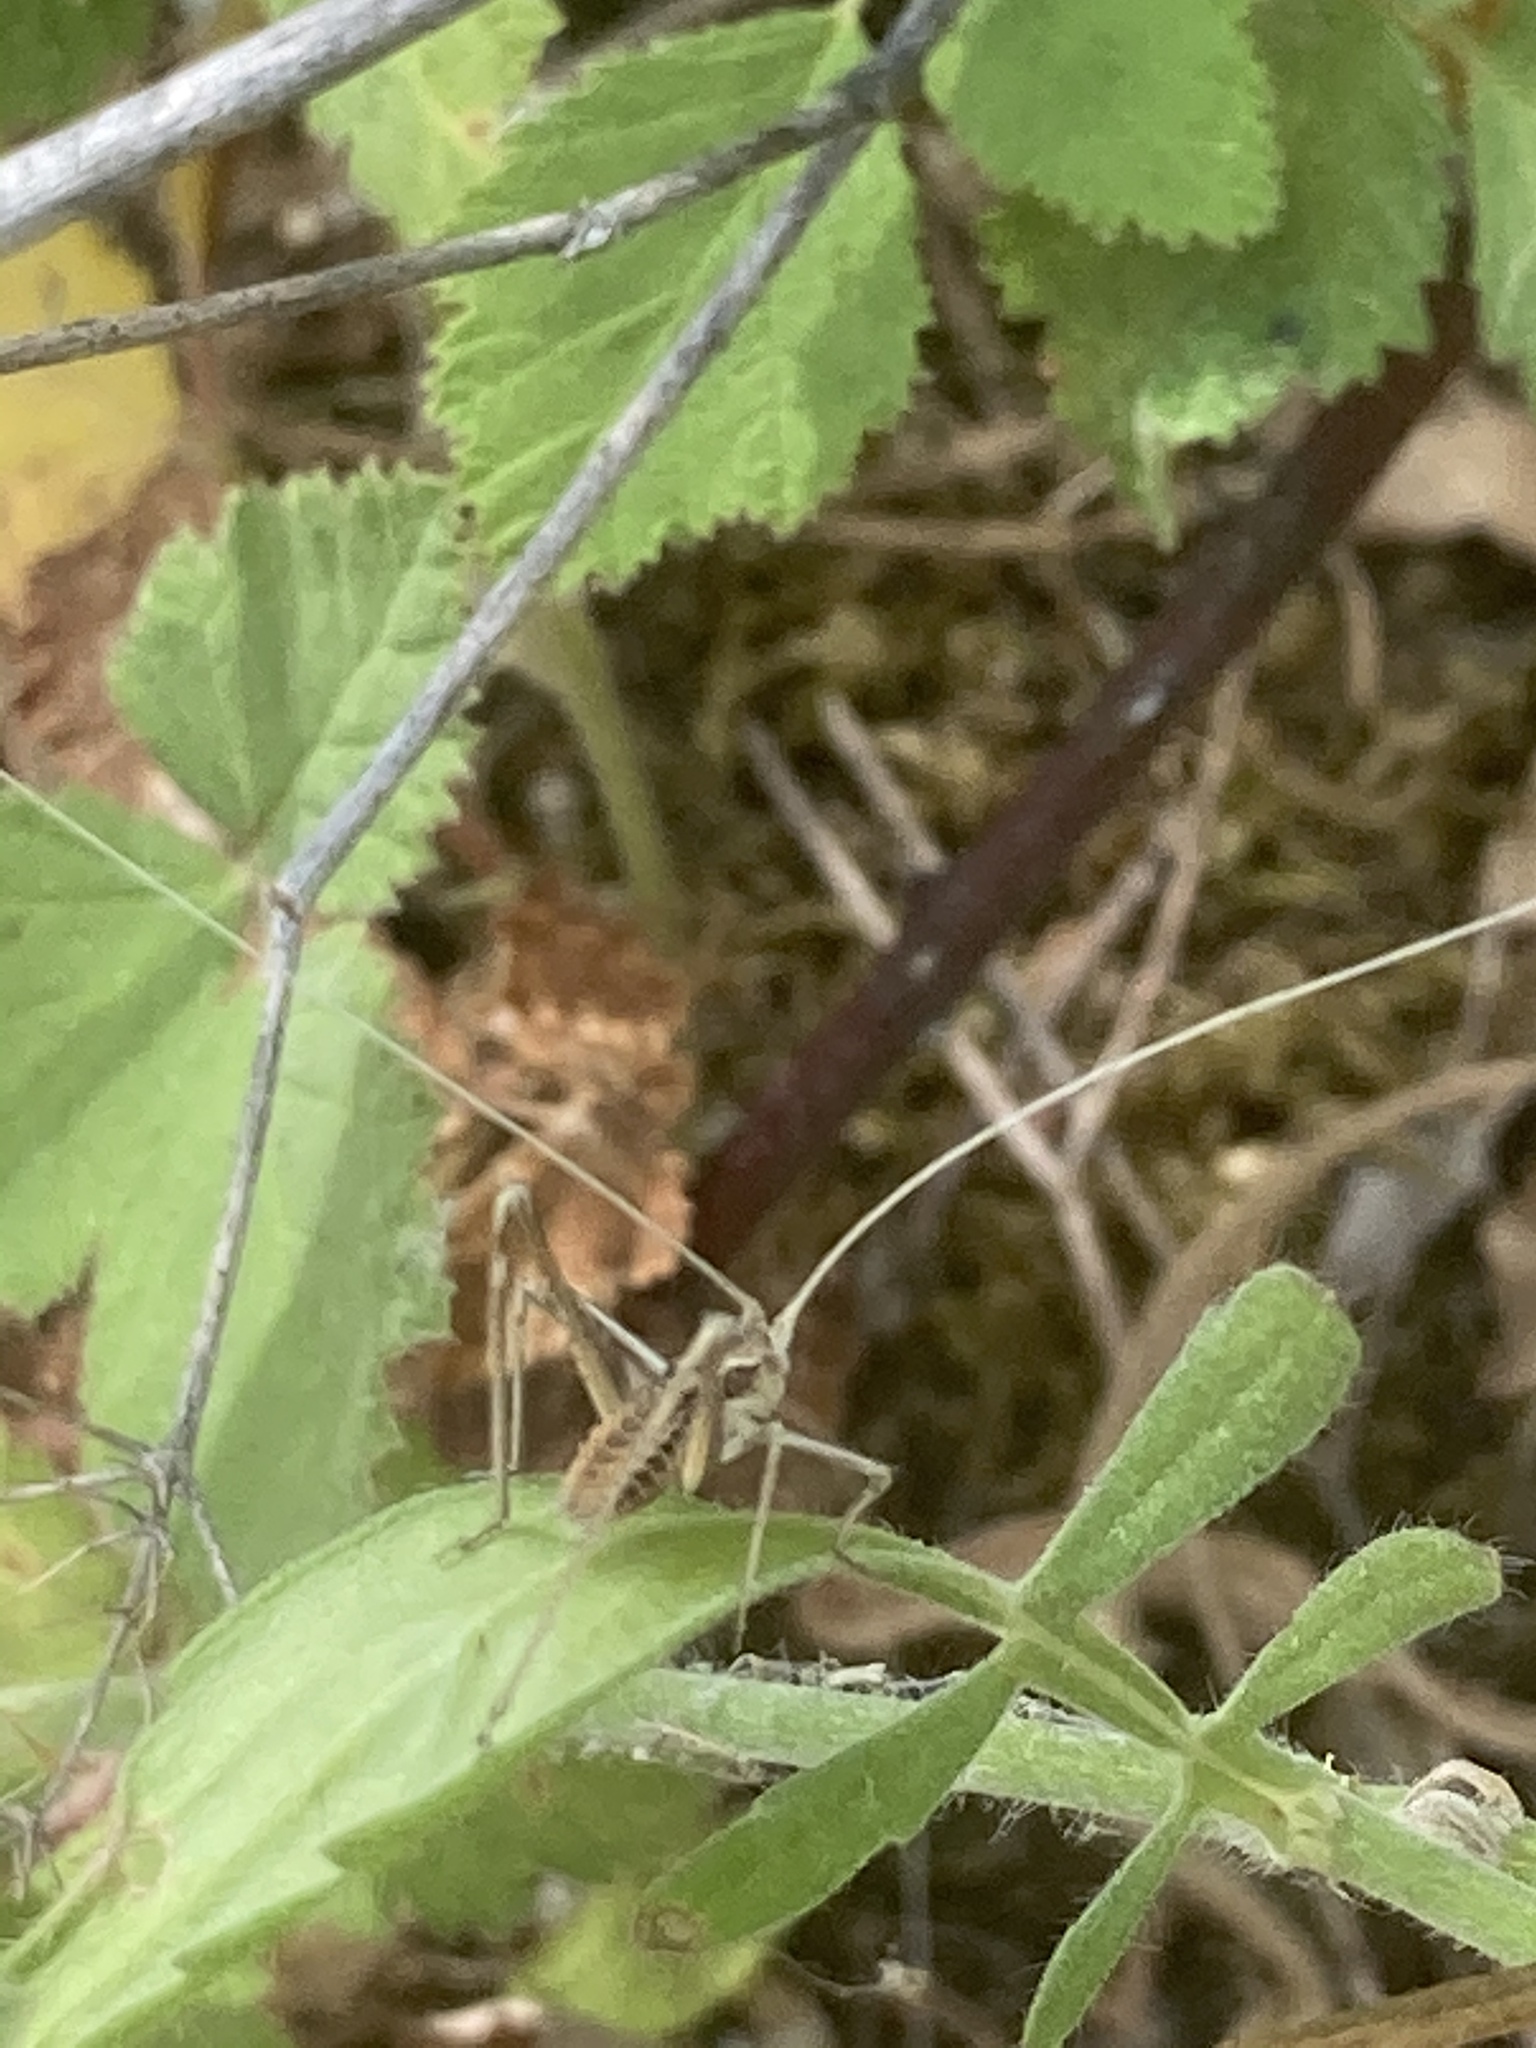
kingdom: Animalia
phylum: Arthropoda
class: Insecta
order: Orthoptera
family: Tettigoniidae
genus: Tylopsis
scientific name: Tylopsis lilifolia
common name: Lily bush-cricket
